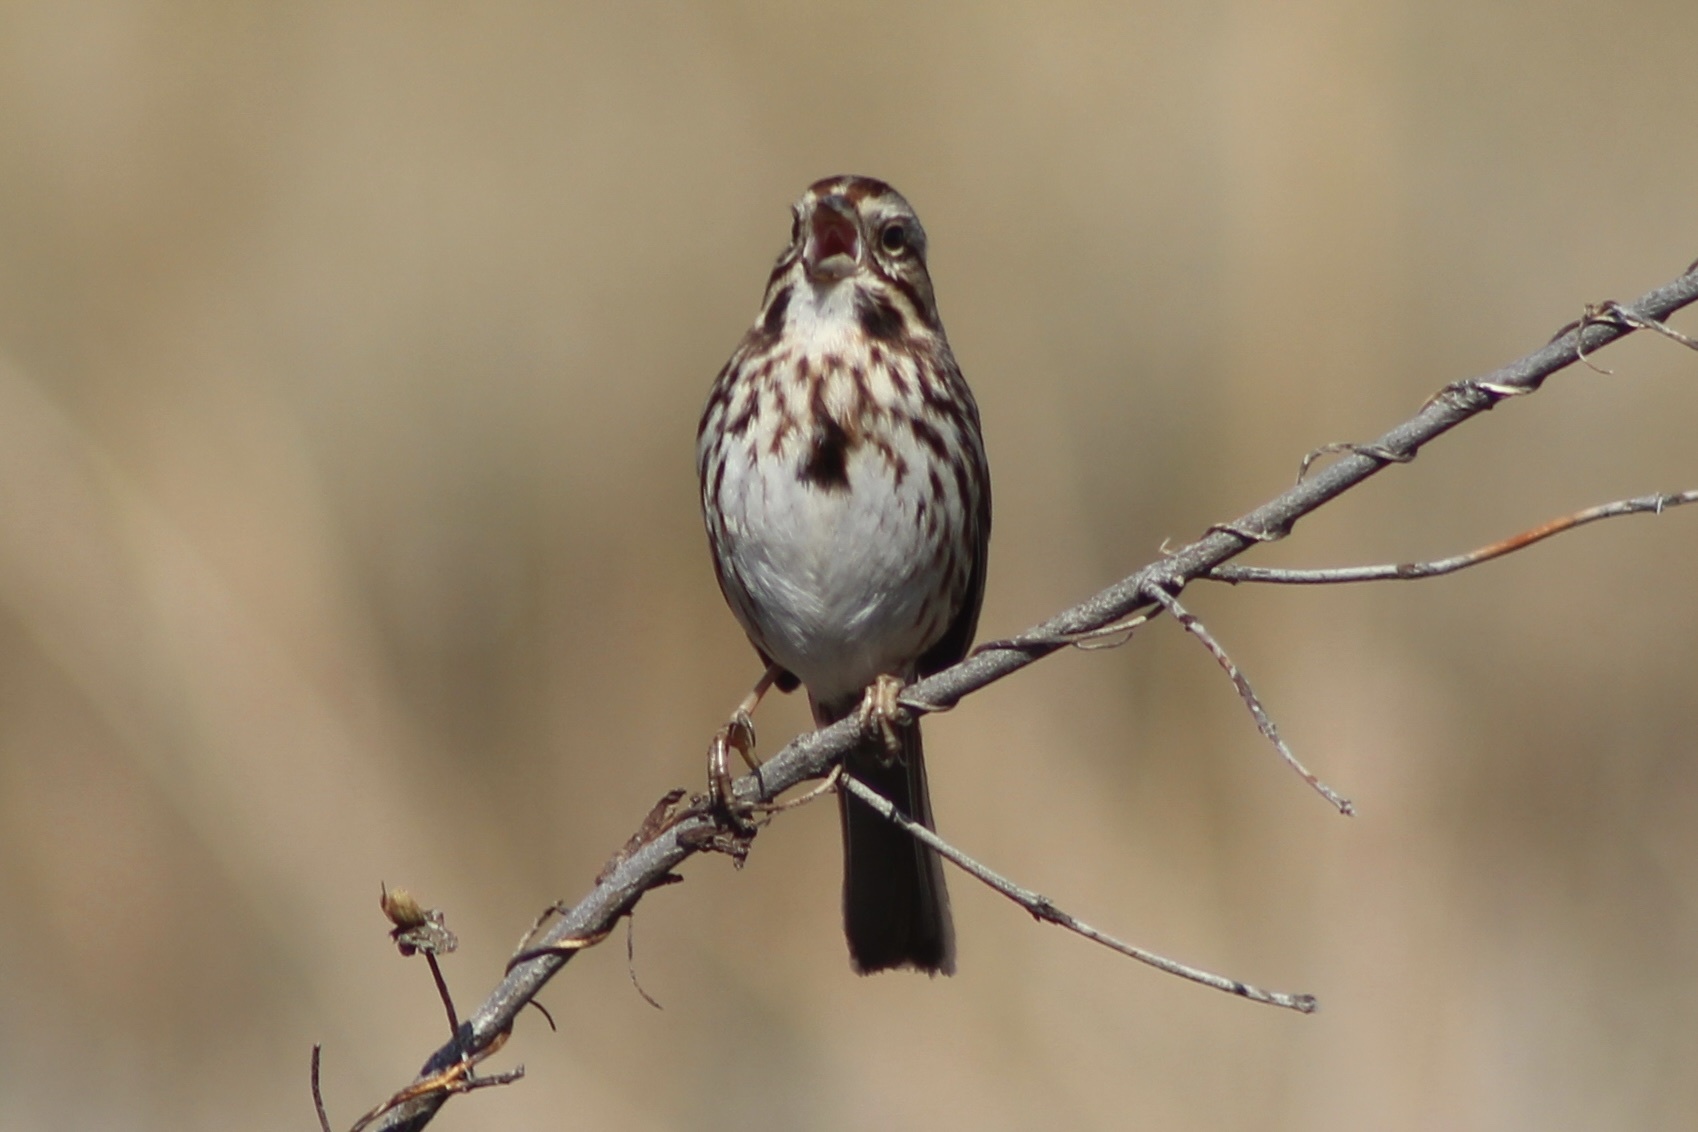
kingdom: Animalia
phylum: Chordata
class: Aves
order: Passeriformes
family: Passerellidae
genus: Melospiza
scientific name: Melospiza melodia
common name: Song sparrow
